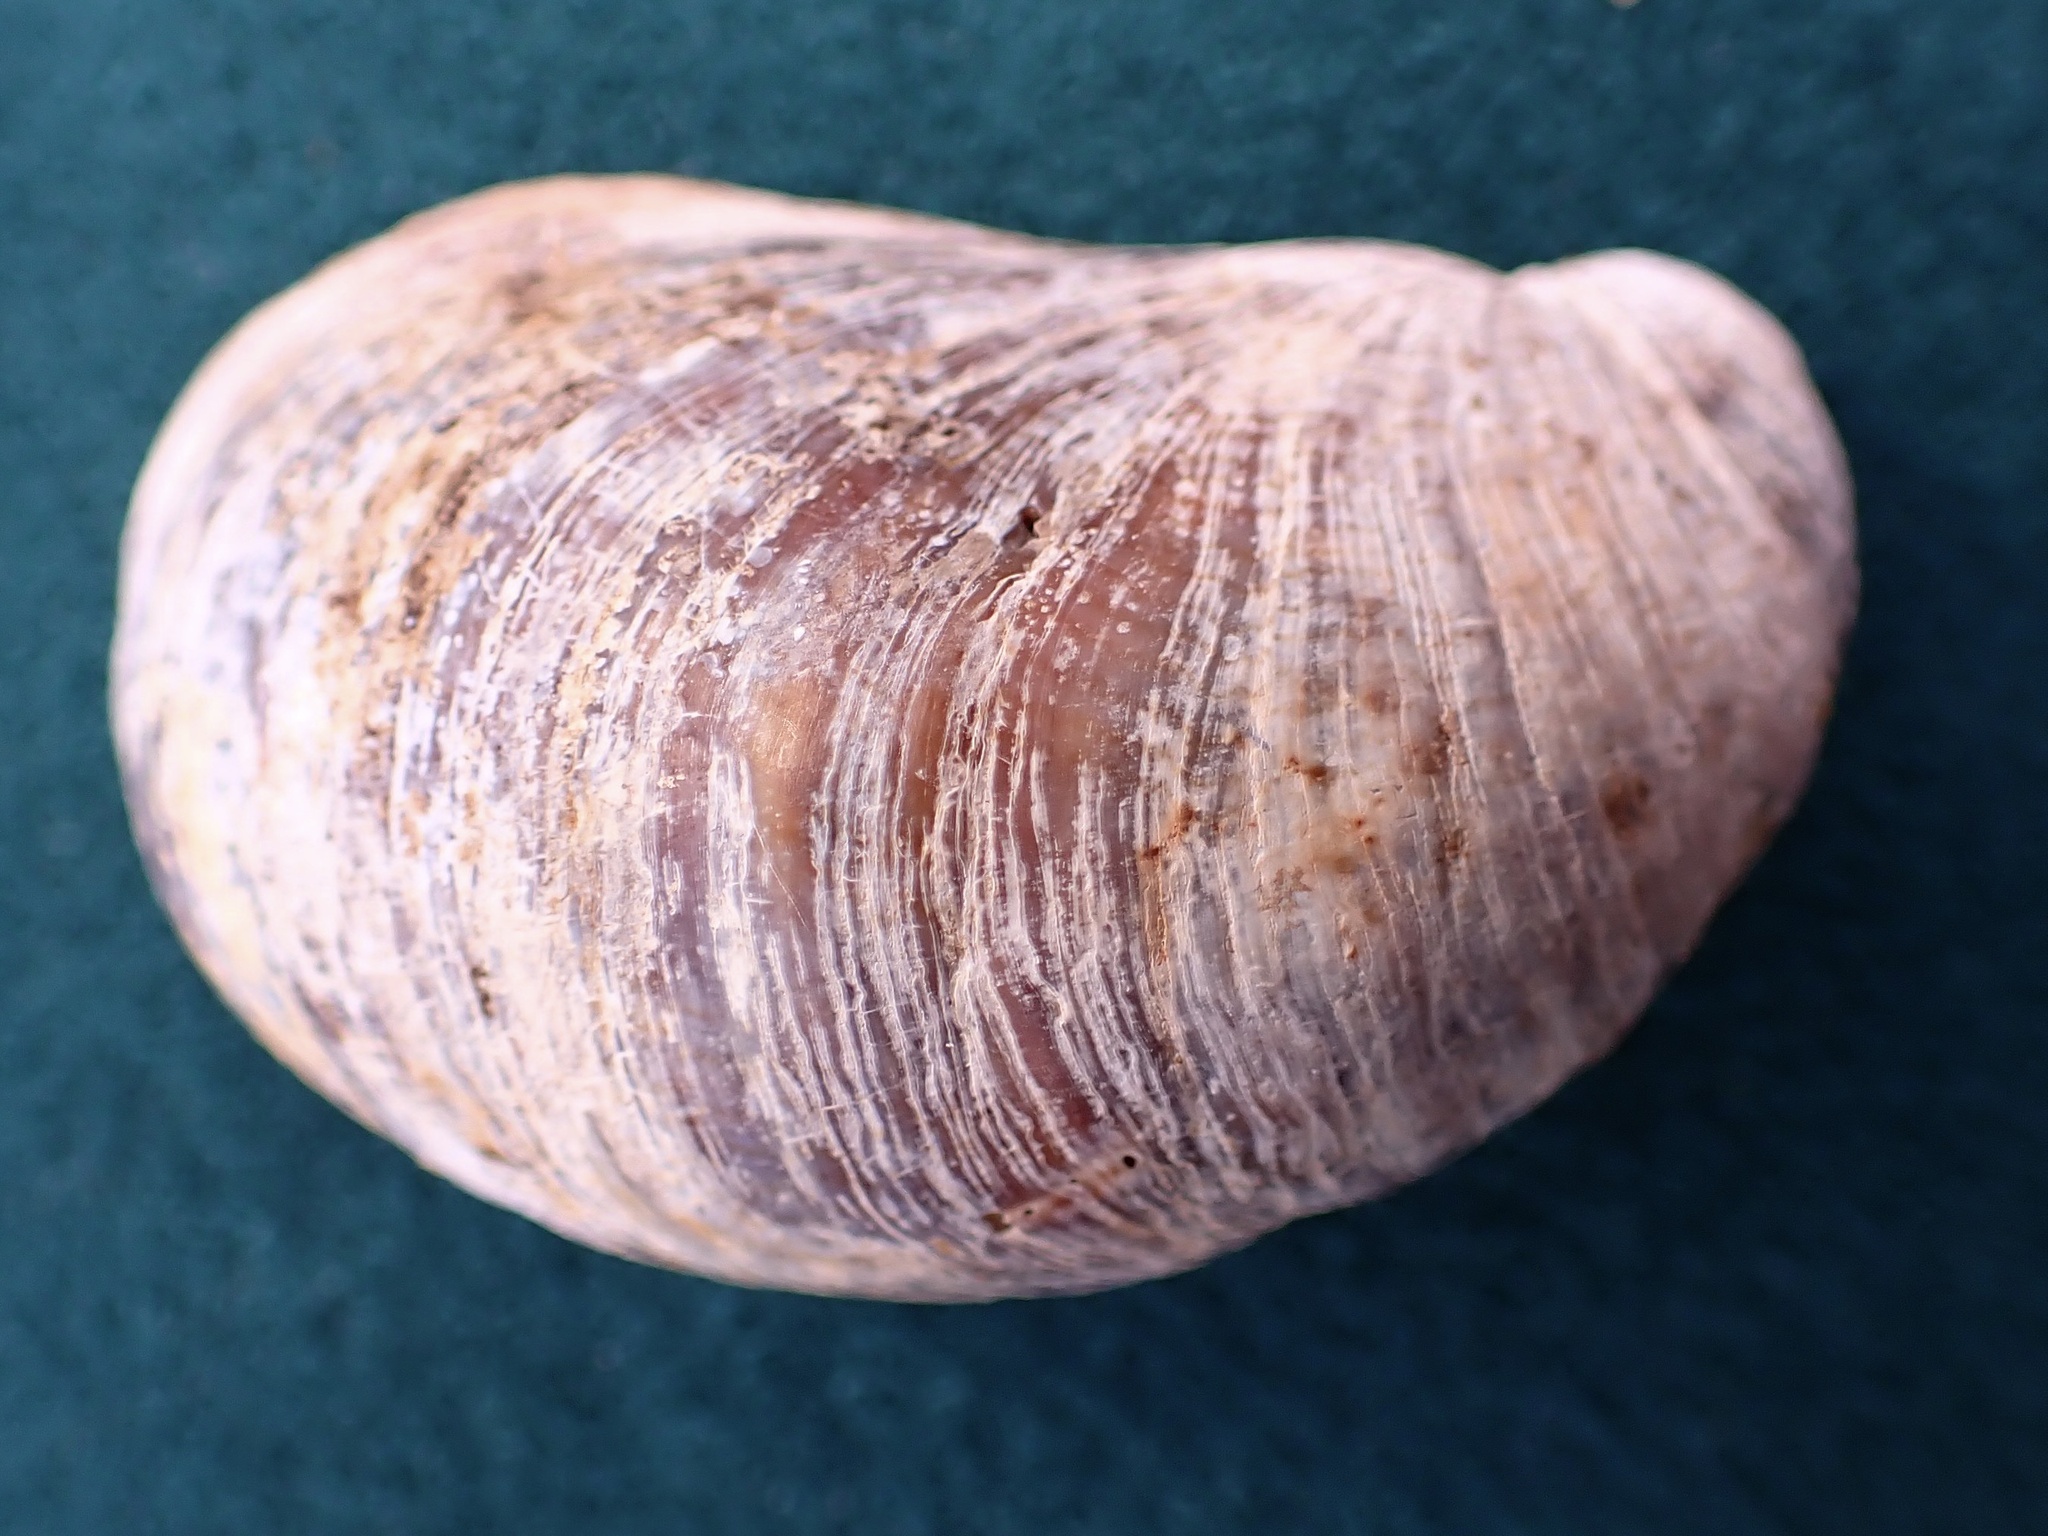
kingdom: Animalia
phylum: Mollusca
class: Gastropoda
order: Littorinimorpha
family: Calyptraeidae
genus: Crepidula
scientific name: Crepidula onyx
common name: Onyx slippersnail
